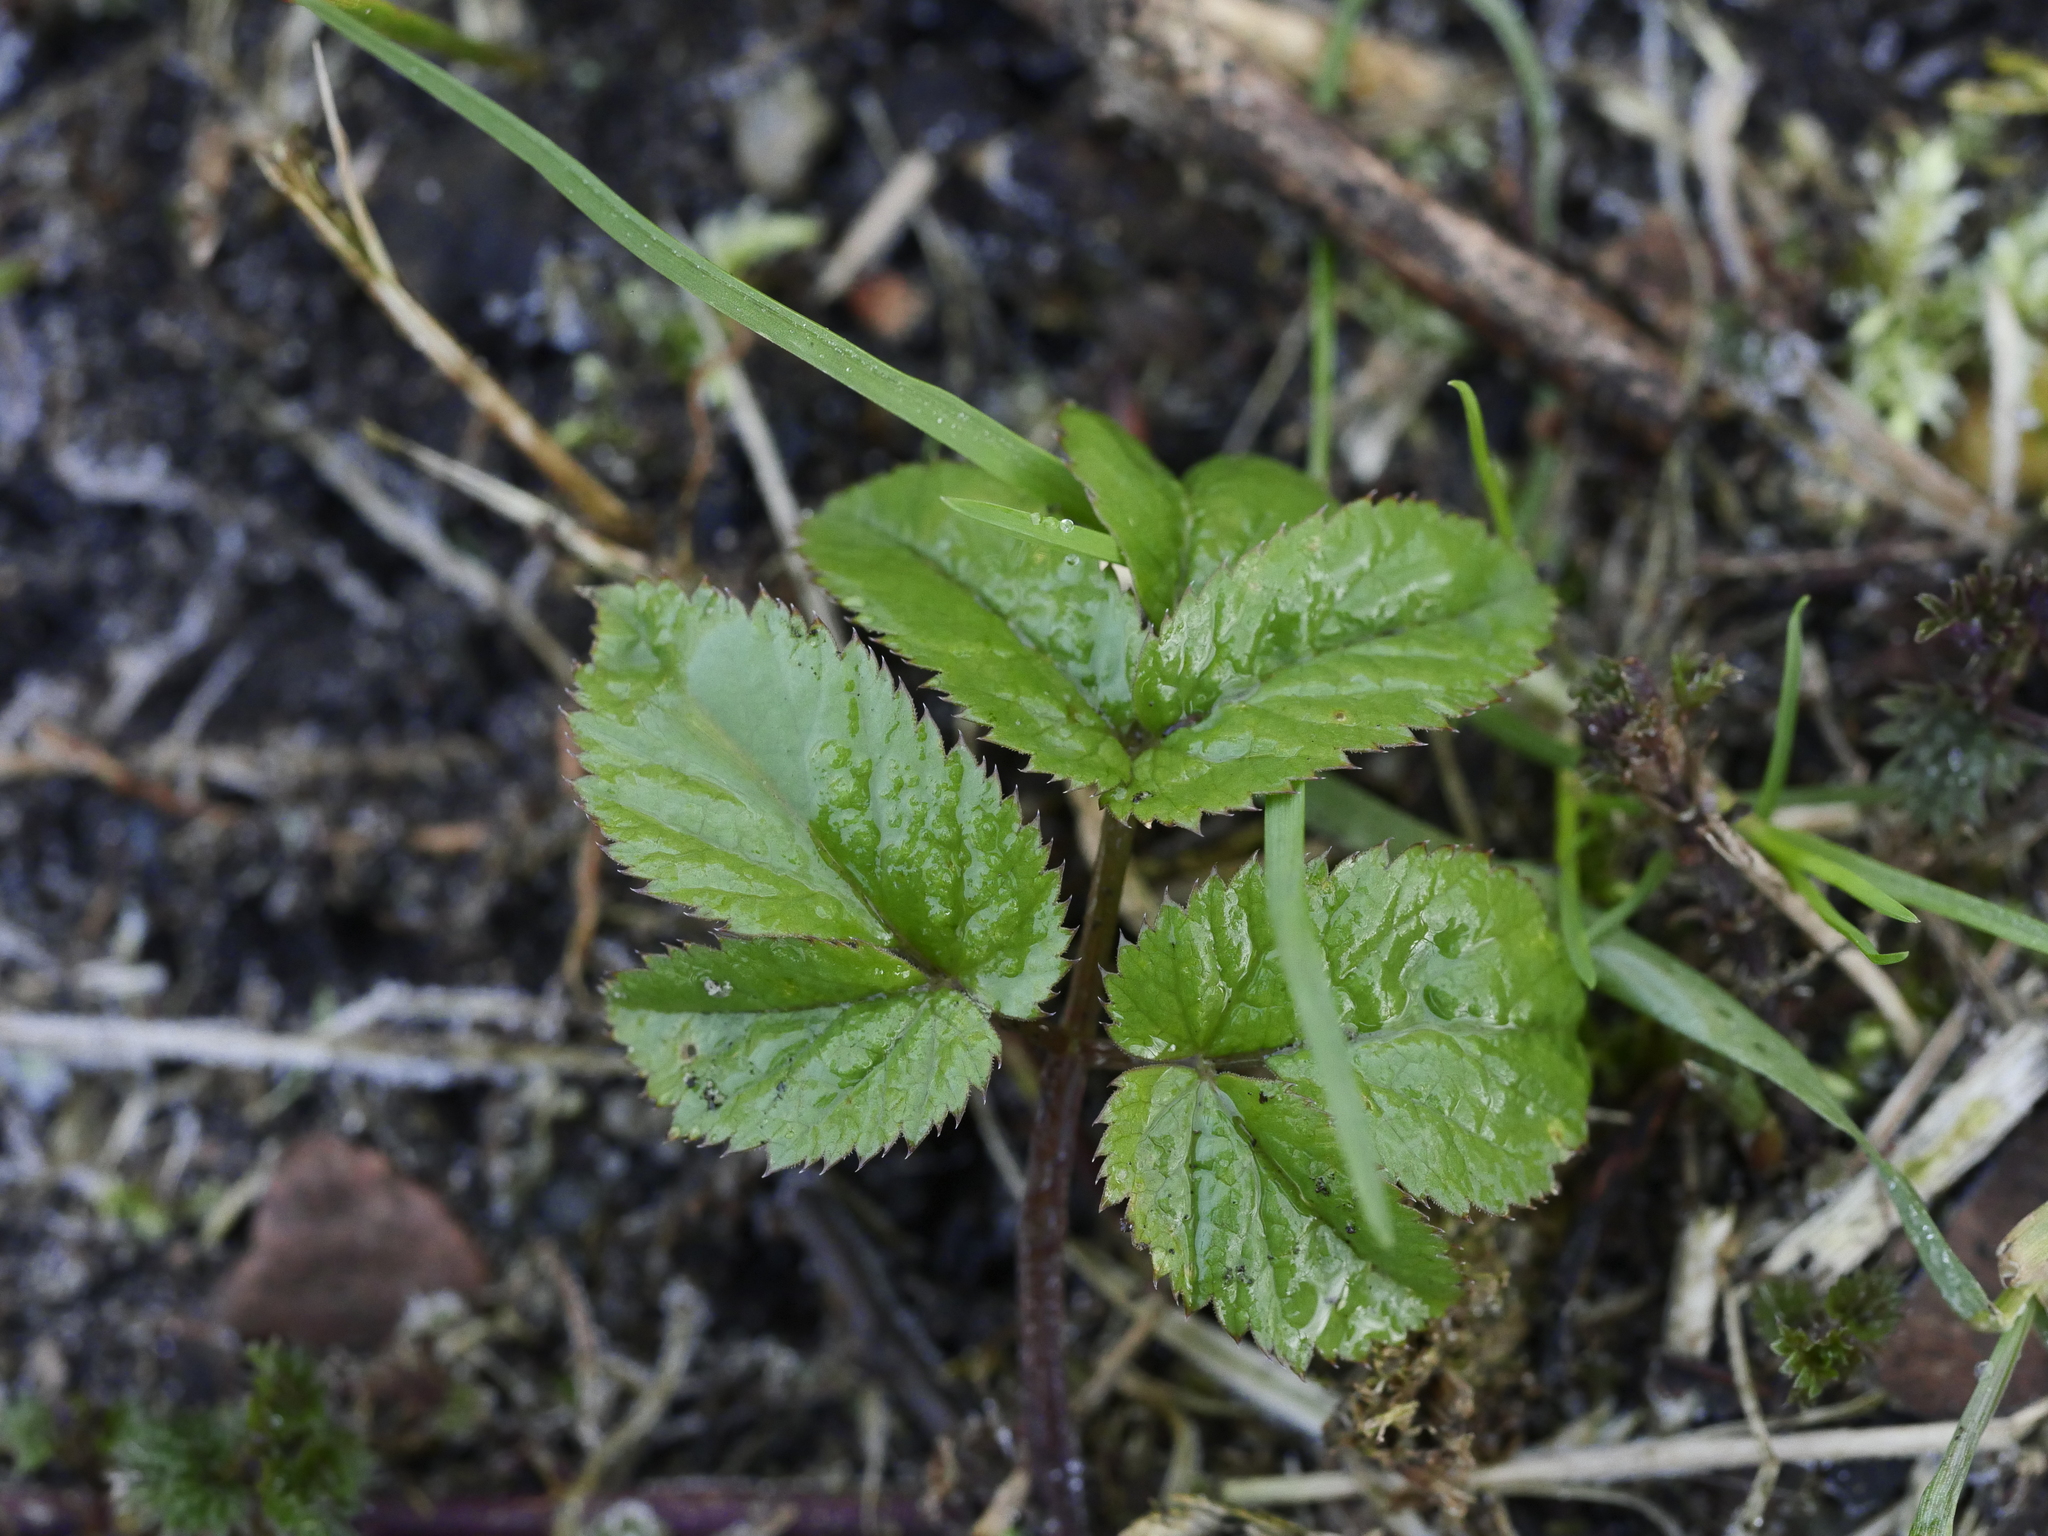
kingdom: Plantae
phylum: Tracheophyta
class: Magnoliopsida
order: Apiales
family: Apiaceae
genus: Aegopodium
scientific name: Aegopodium podagraria
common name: Ground-elder
